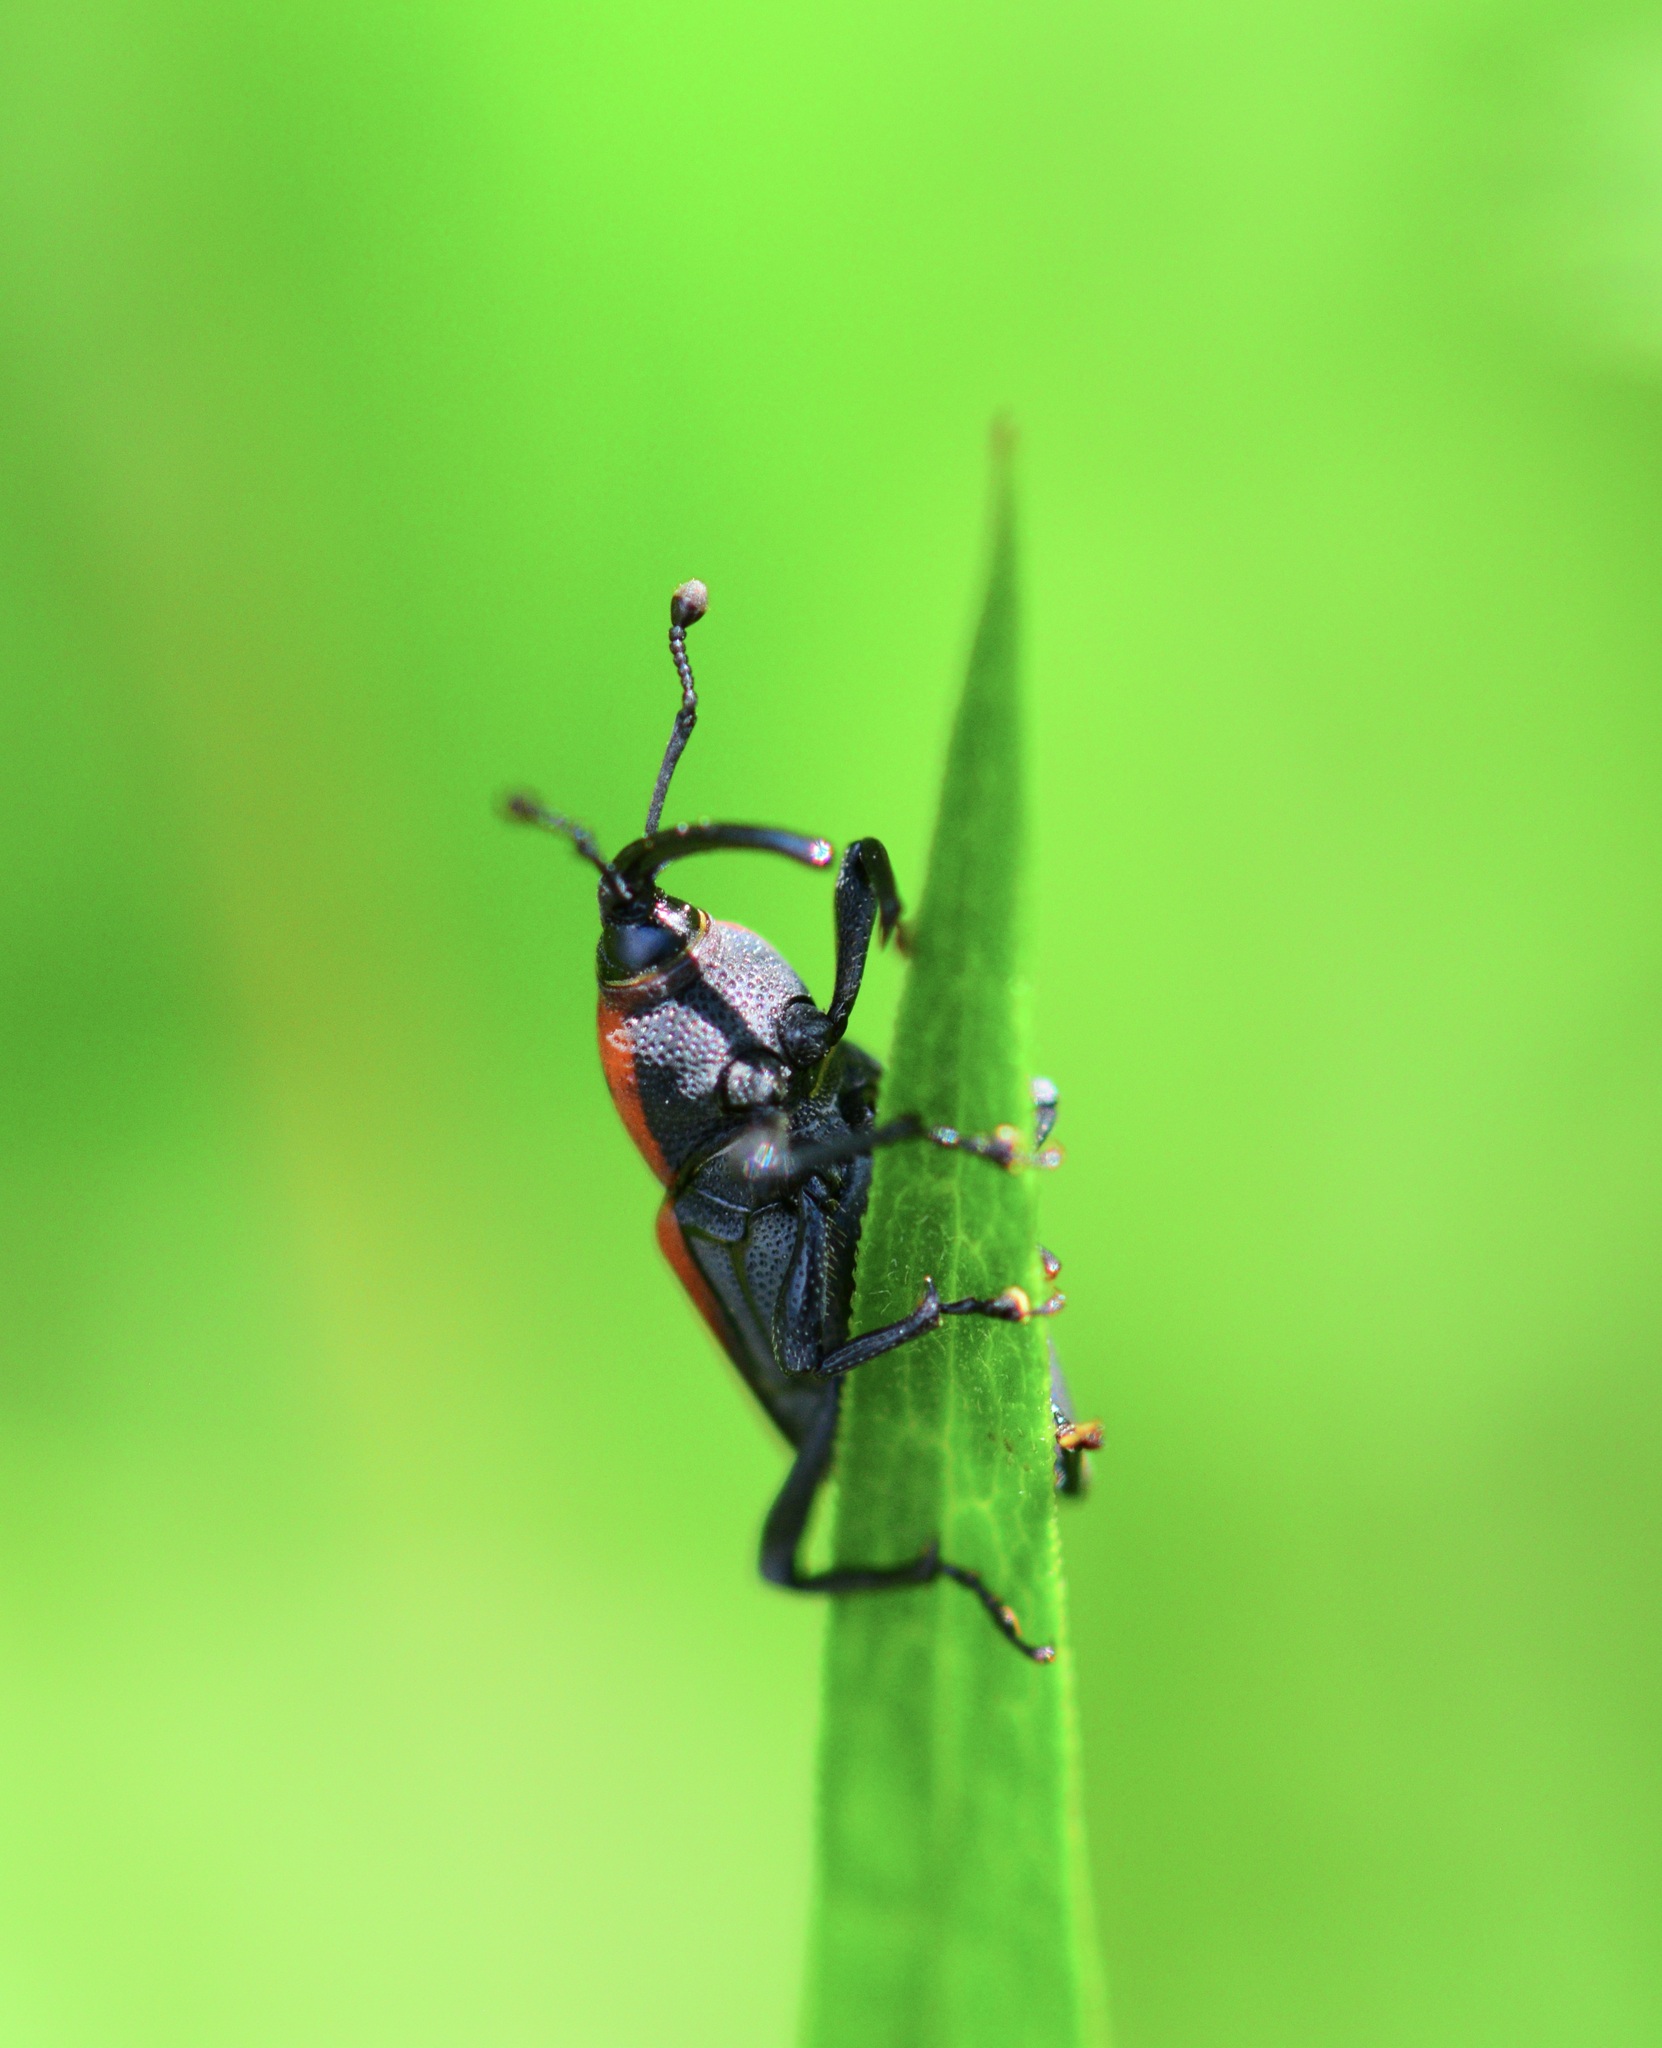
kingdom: Animalia
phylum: Arthropoda
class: Insecta
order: Coleoptera
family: Dryophthoridae
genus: Rhodobaenus
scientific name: Rhodobaenus quinquepunctatus
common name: Cocklebur weevil
